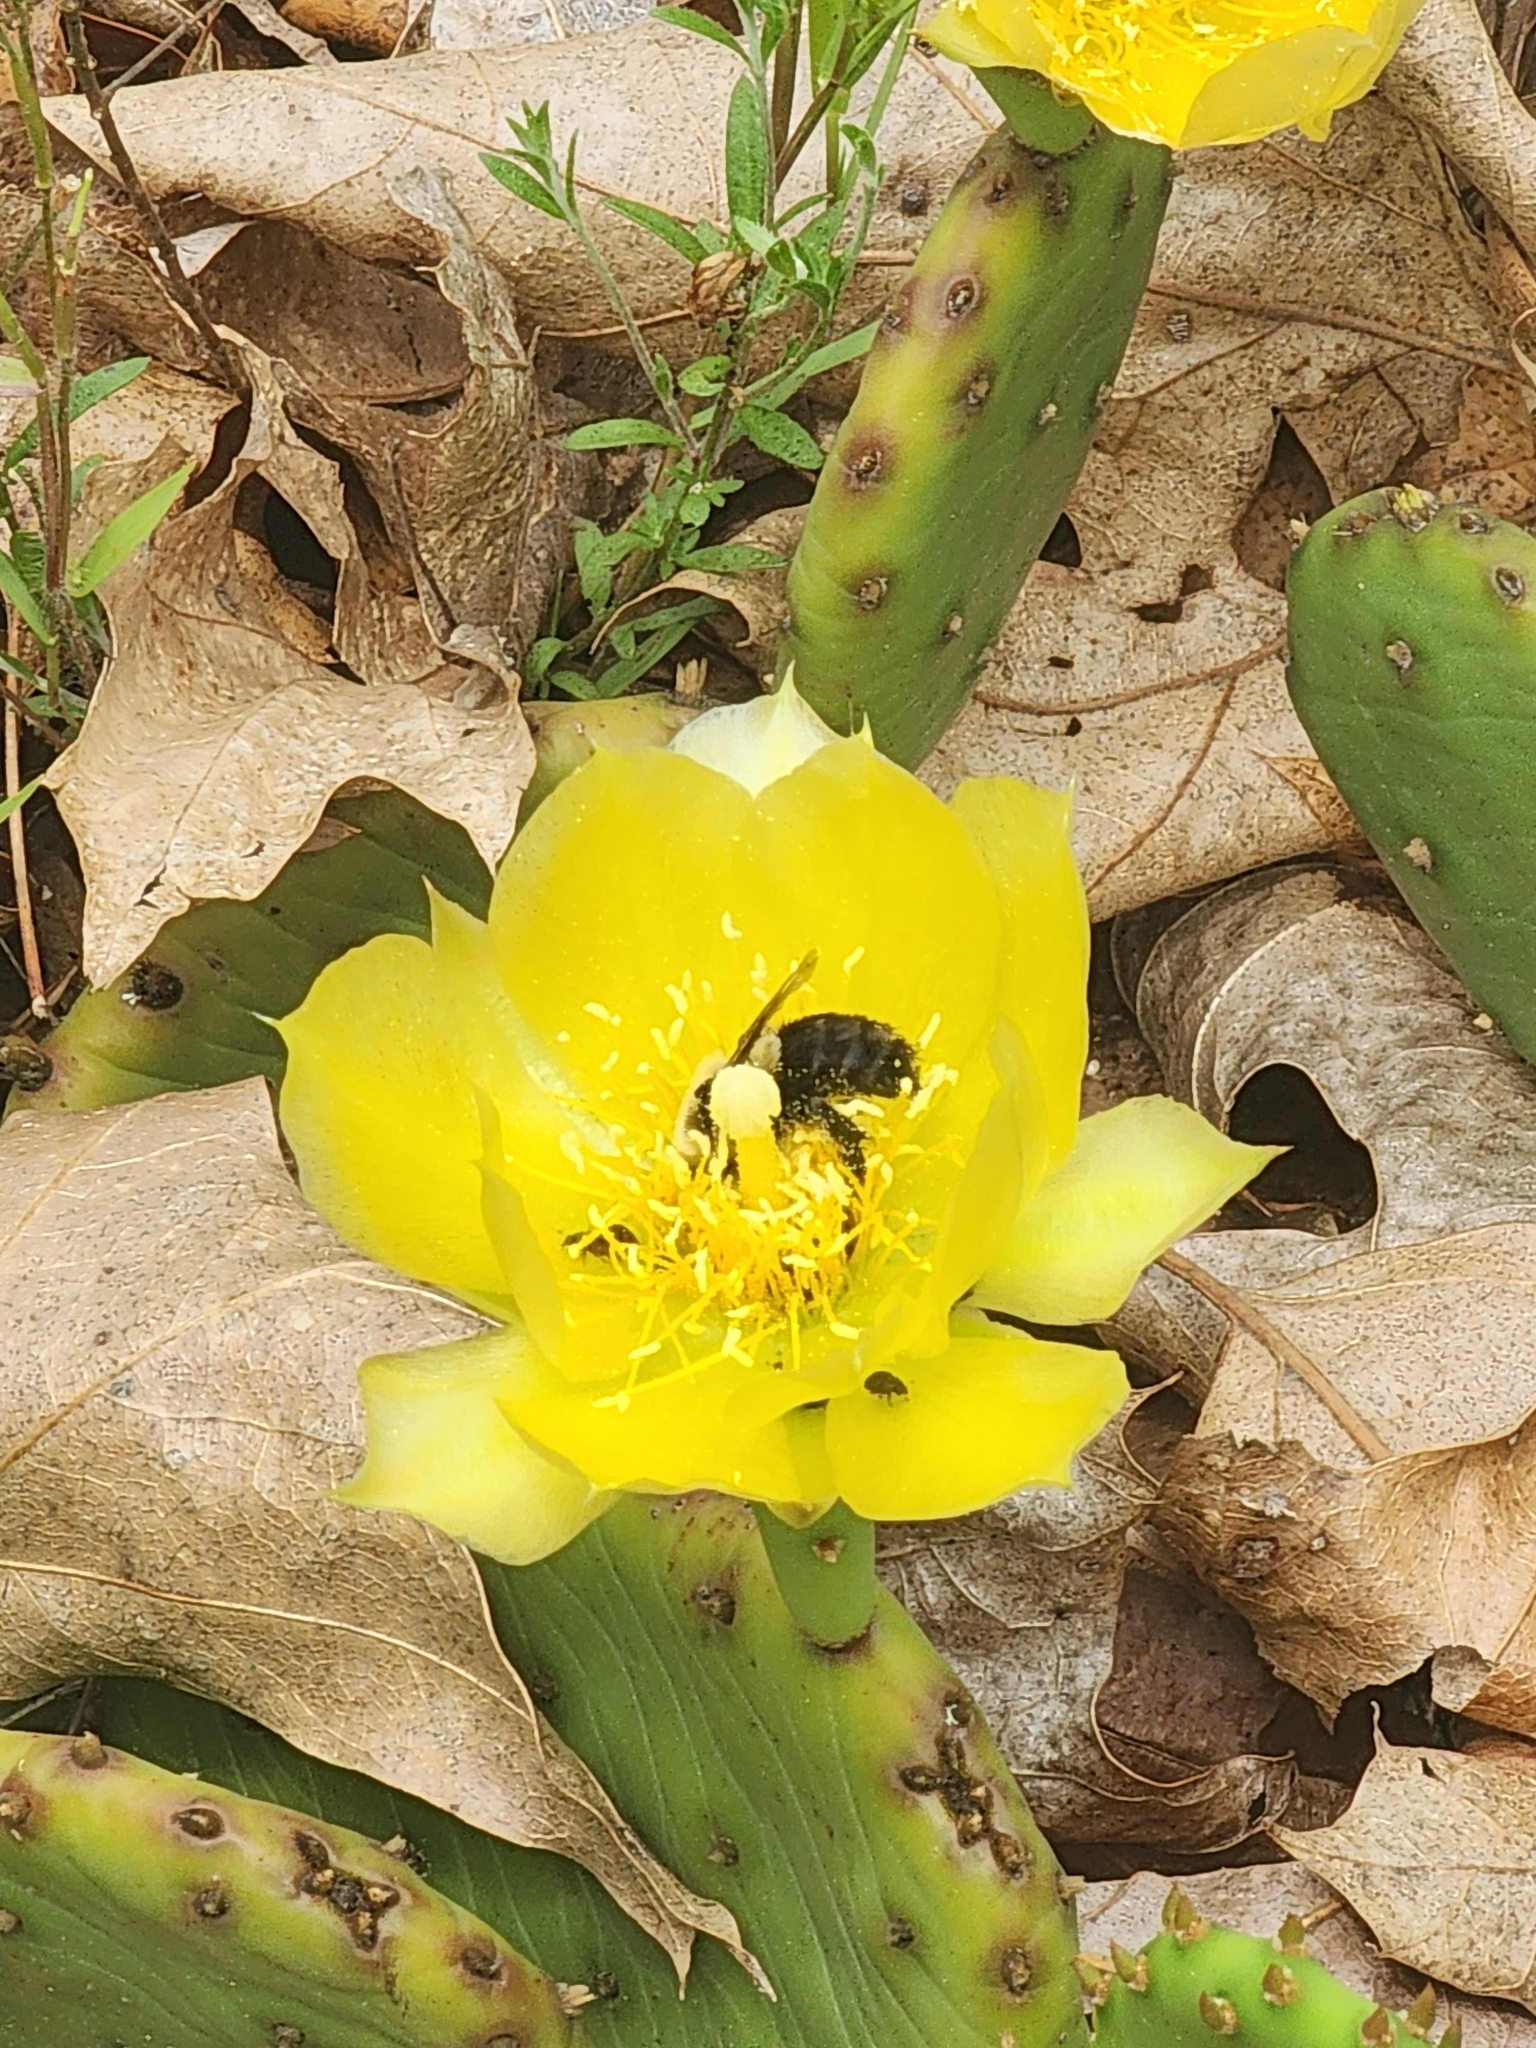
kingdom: Animalia
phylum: Arthropoda
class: Insecta
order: Hymenoptera
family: Apidae
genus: Bombus
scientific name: Bombus impatiens
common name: Common eastern bumble bee
